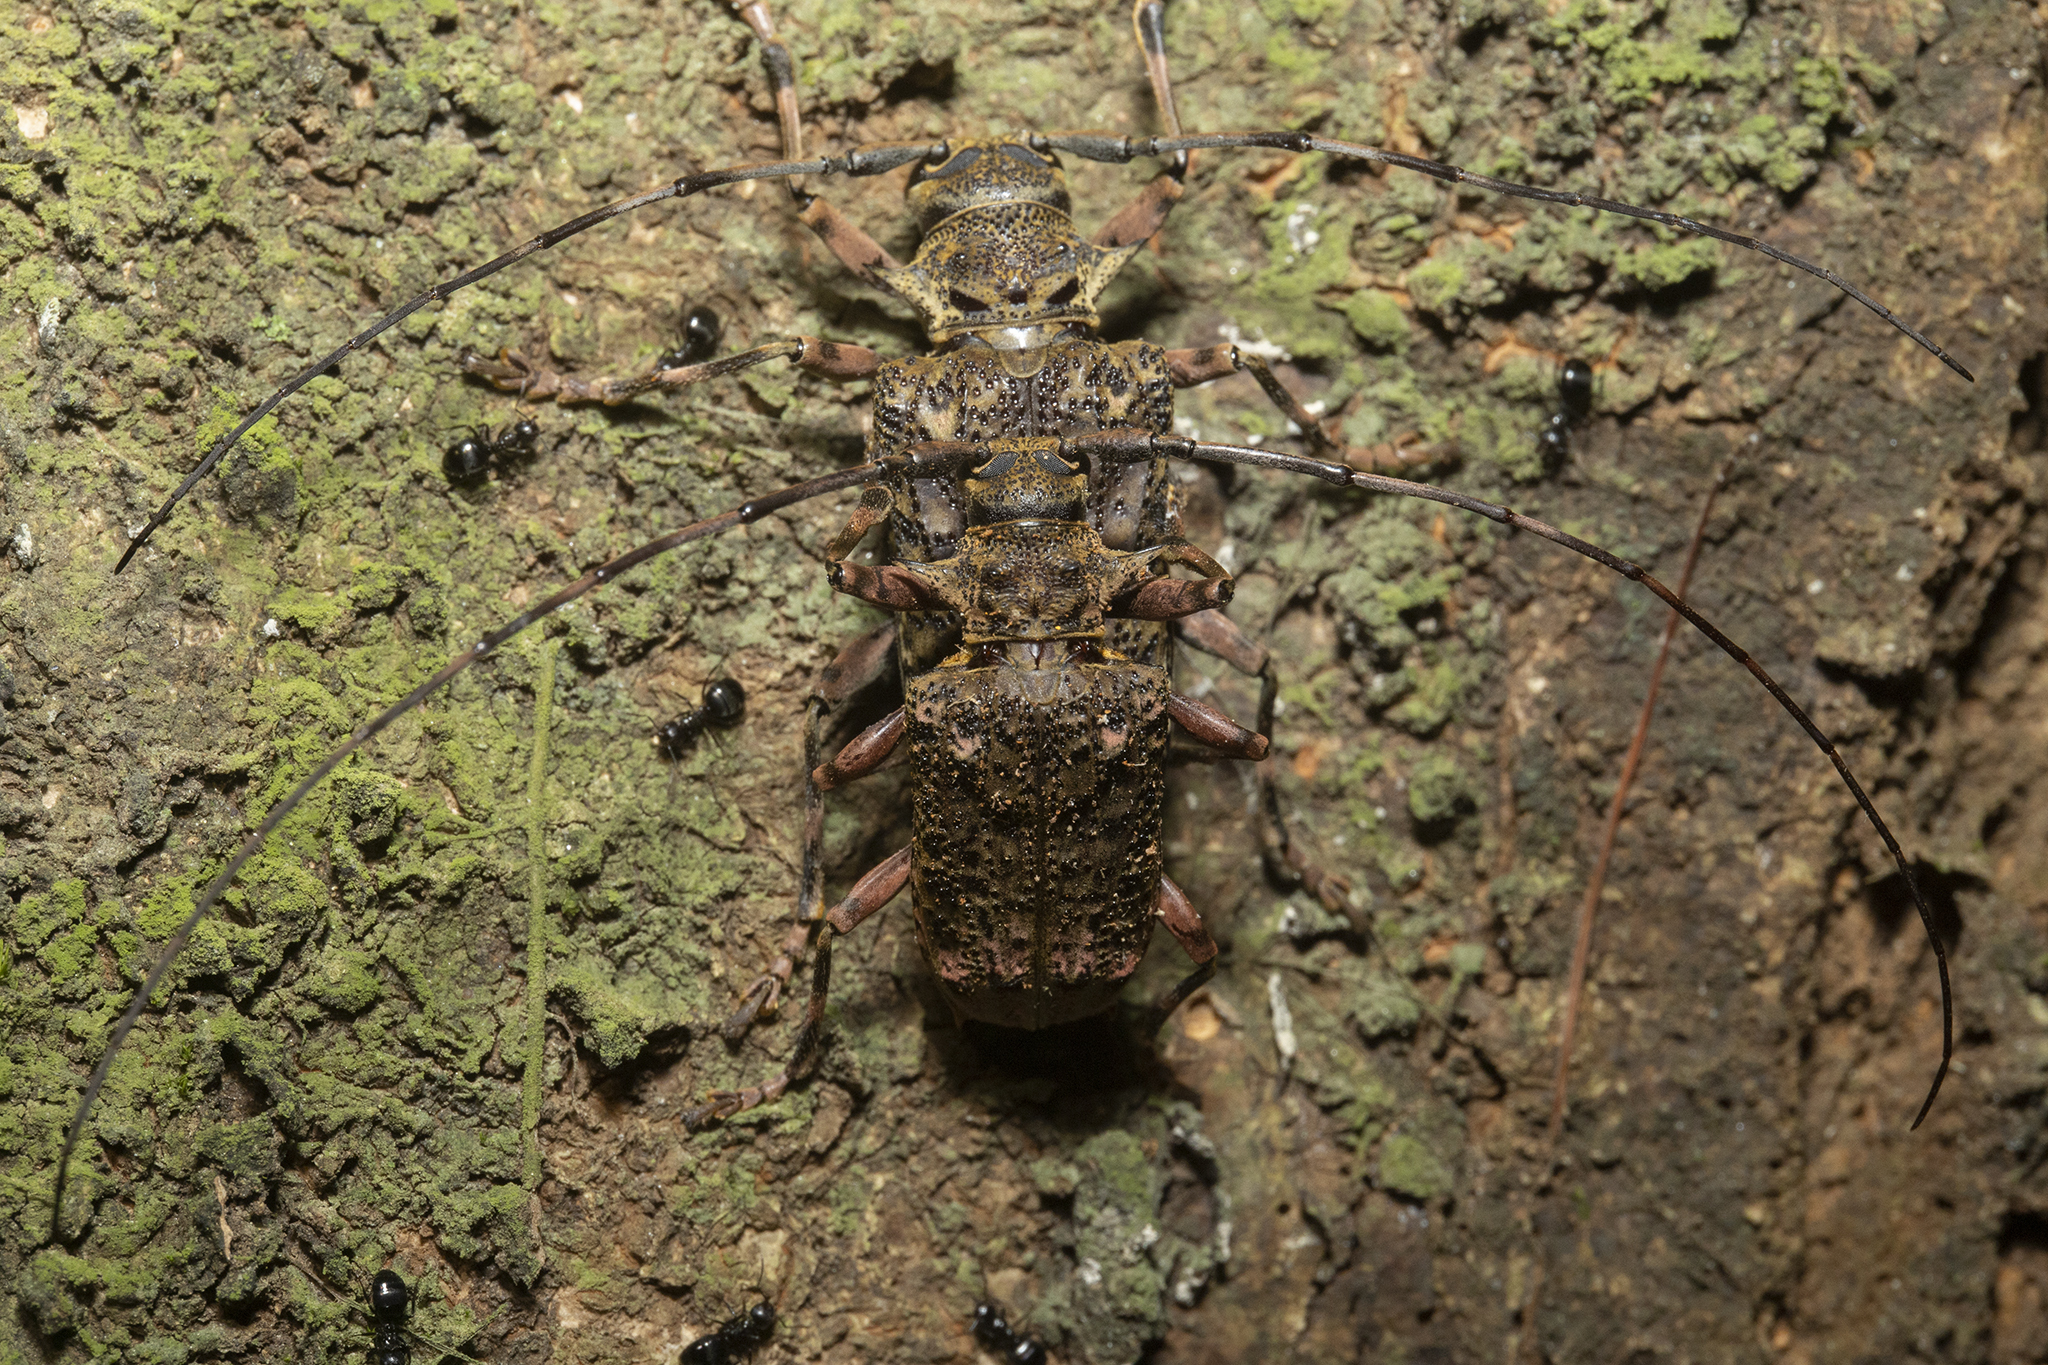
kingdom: Animalia
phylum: Arthropoda
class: Insecta
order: Coleoptera
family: Cerambycidae
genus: Polyrhaphis
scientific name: Polyrhaphis angustata
